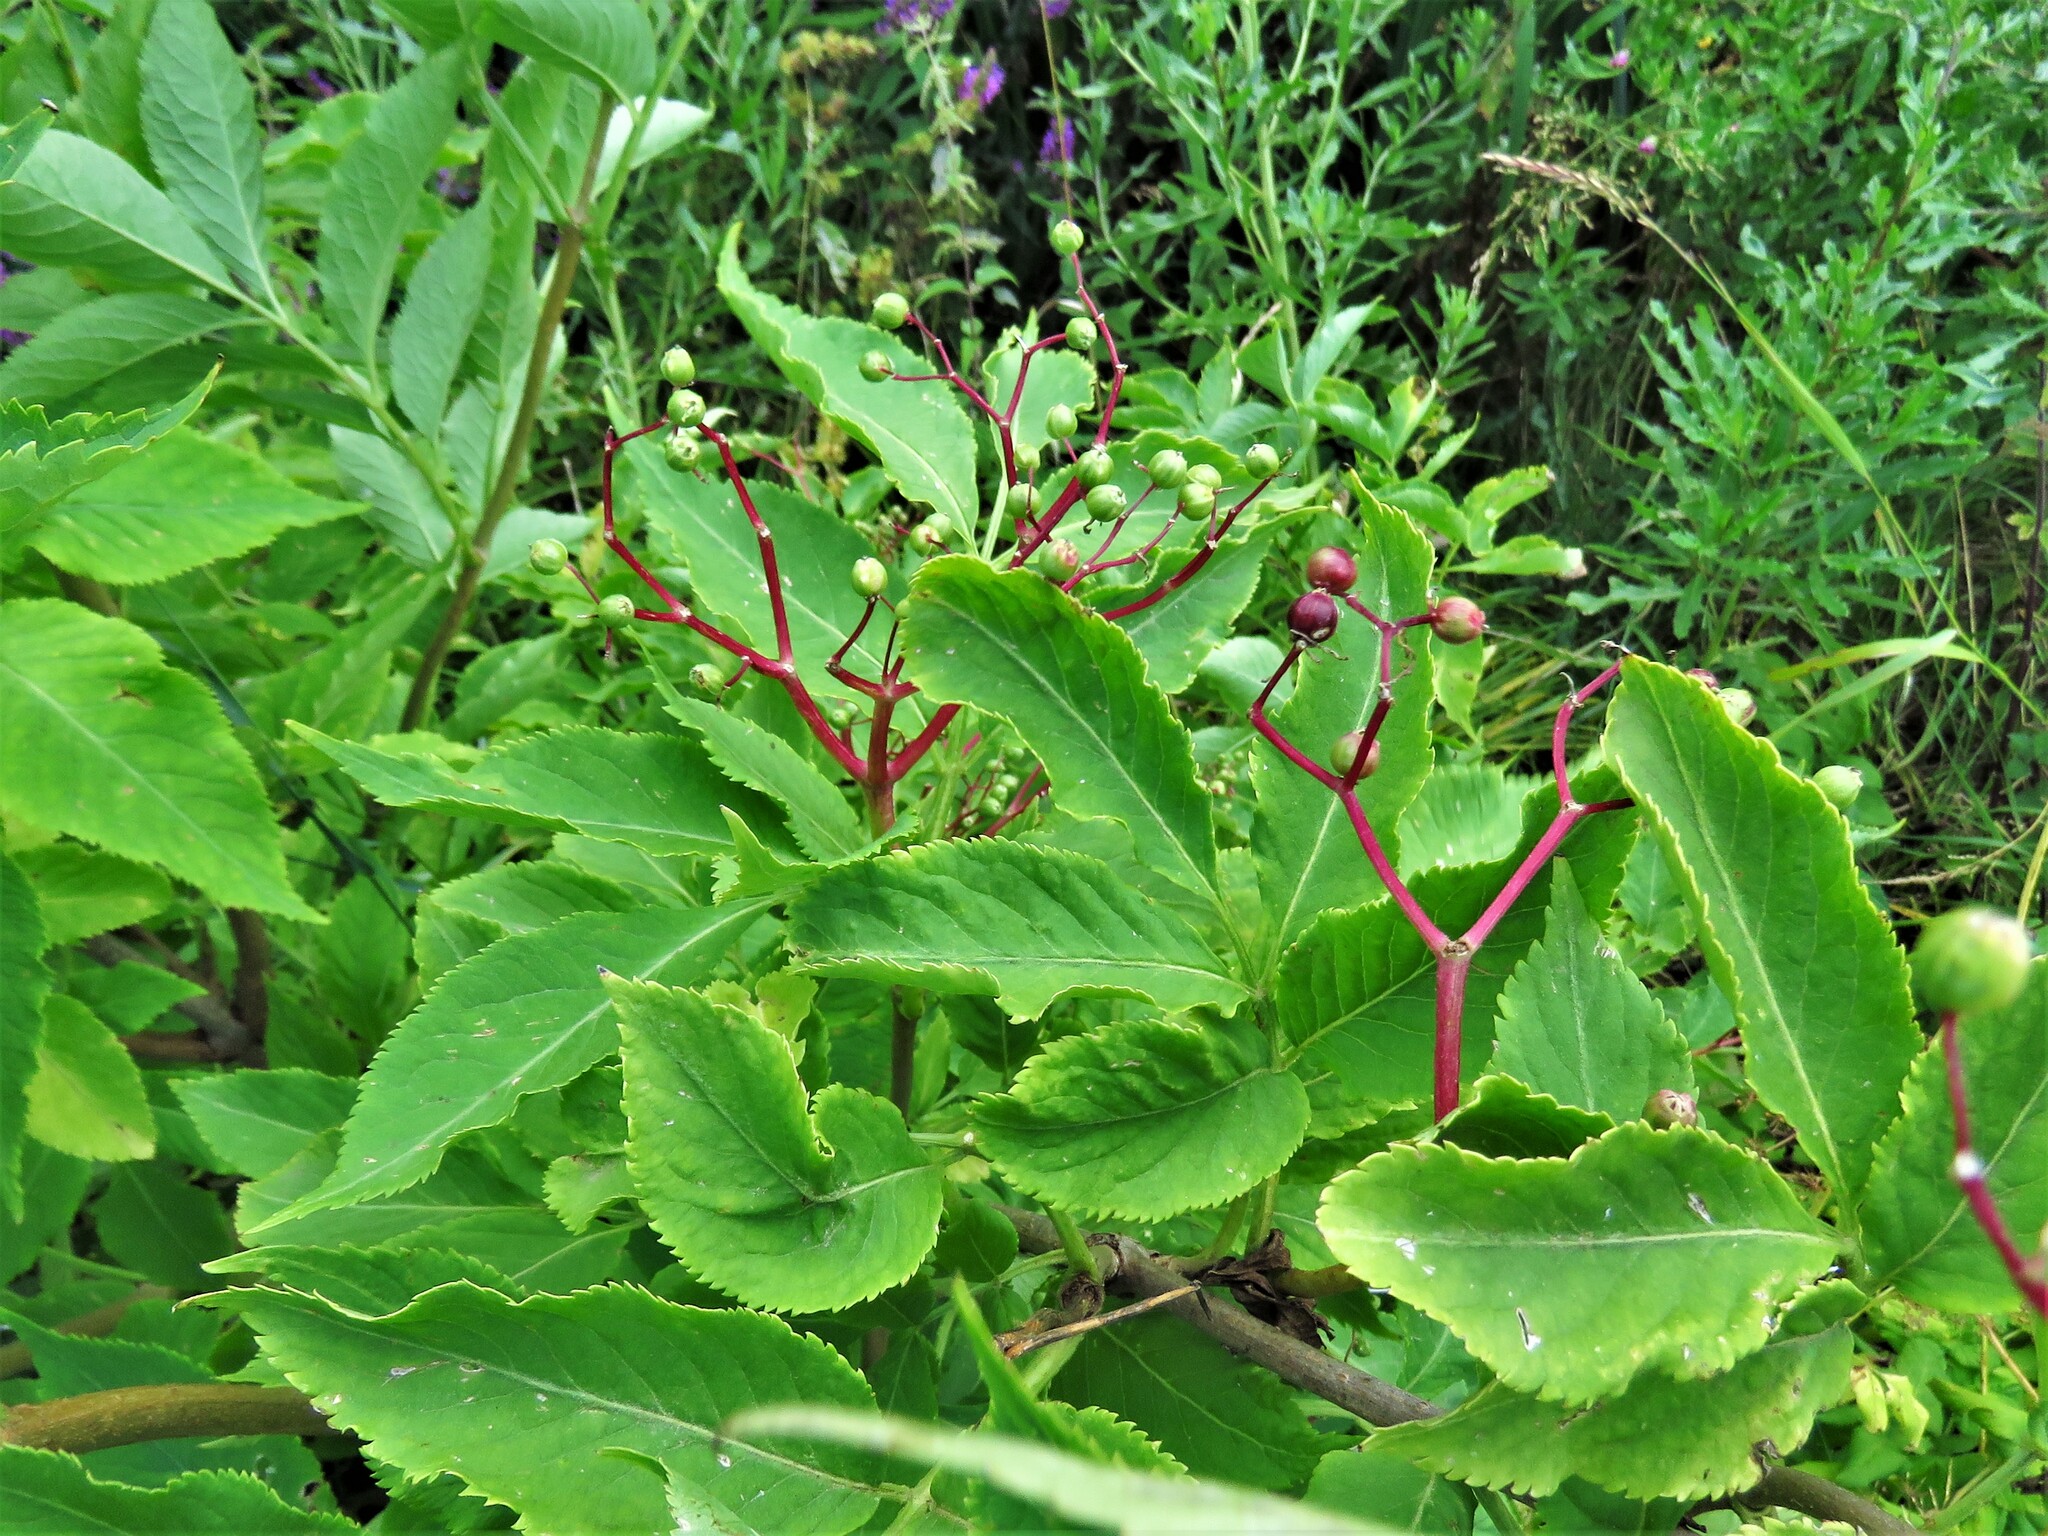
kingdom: Plantae
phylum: Tracheophyta
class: Magnoliopsida
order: Dipsacales
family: Viburnaceae
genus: Sambucus
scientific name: Sambucus nigra
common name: Elder
